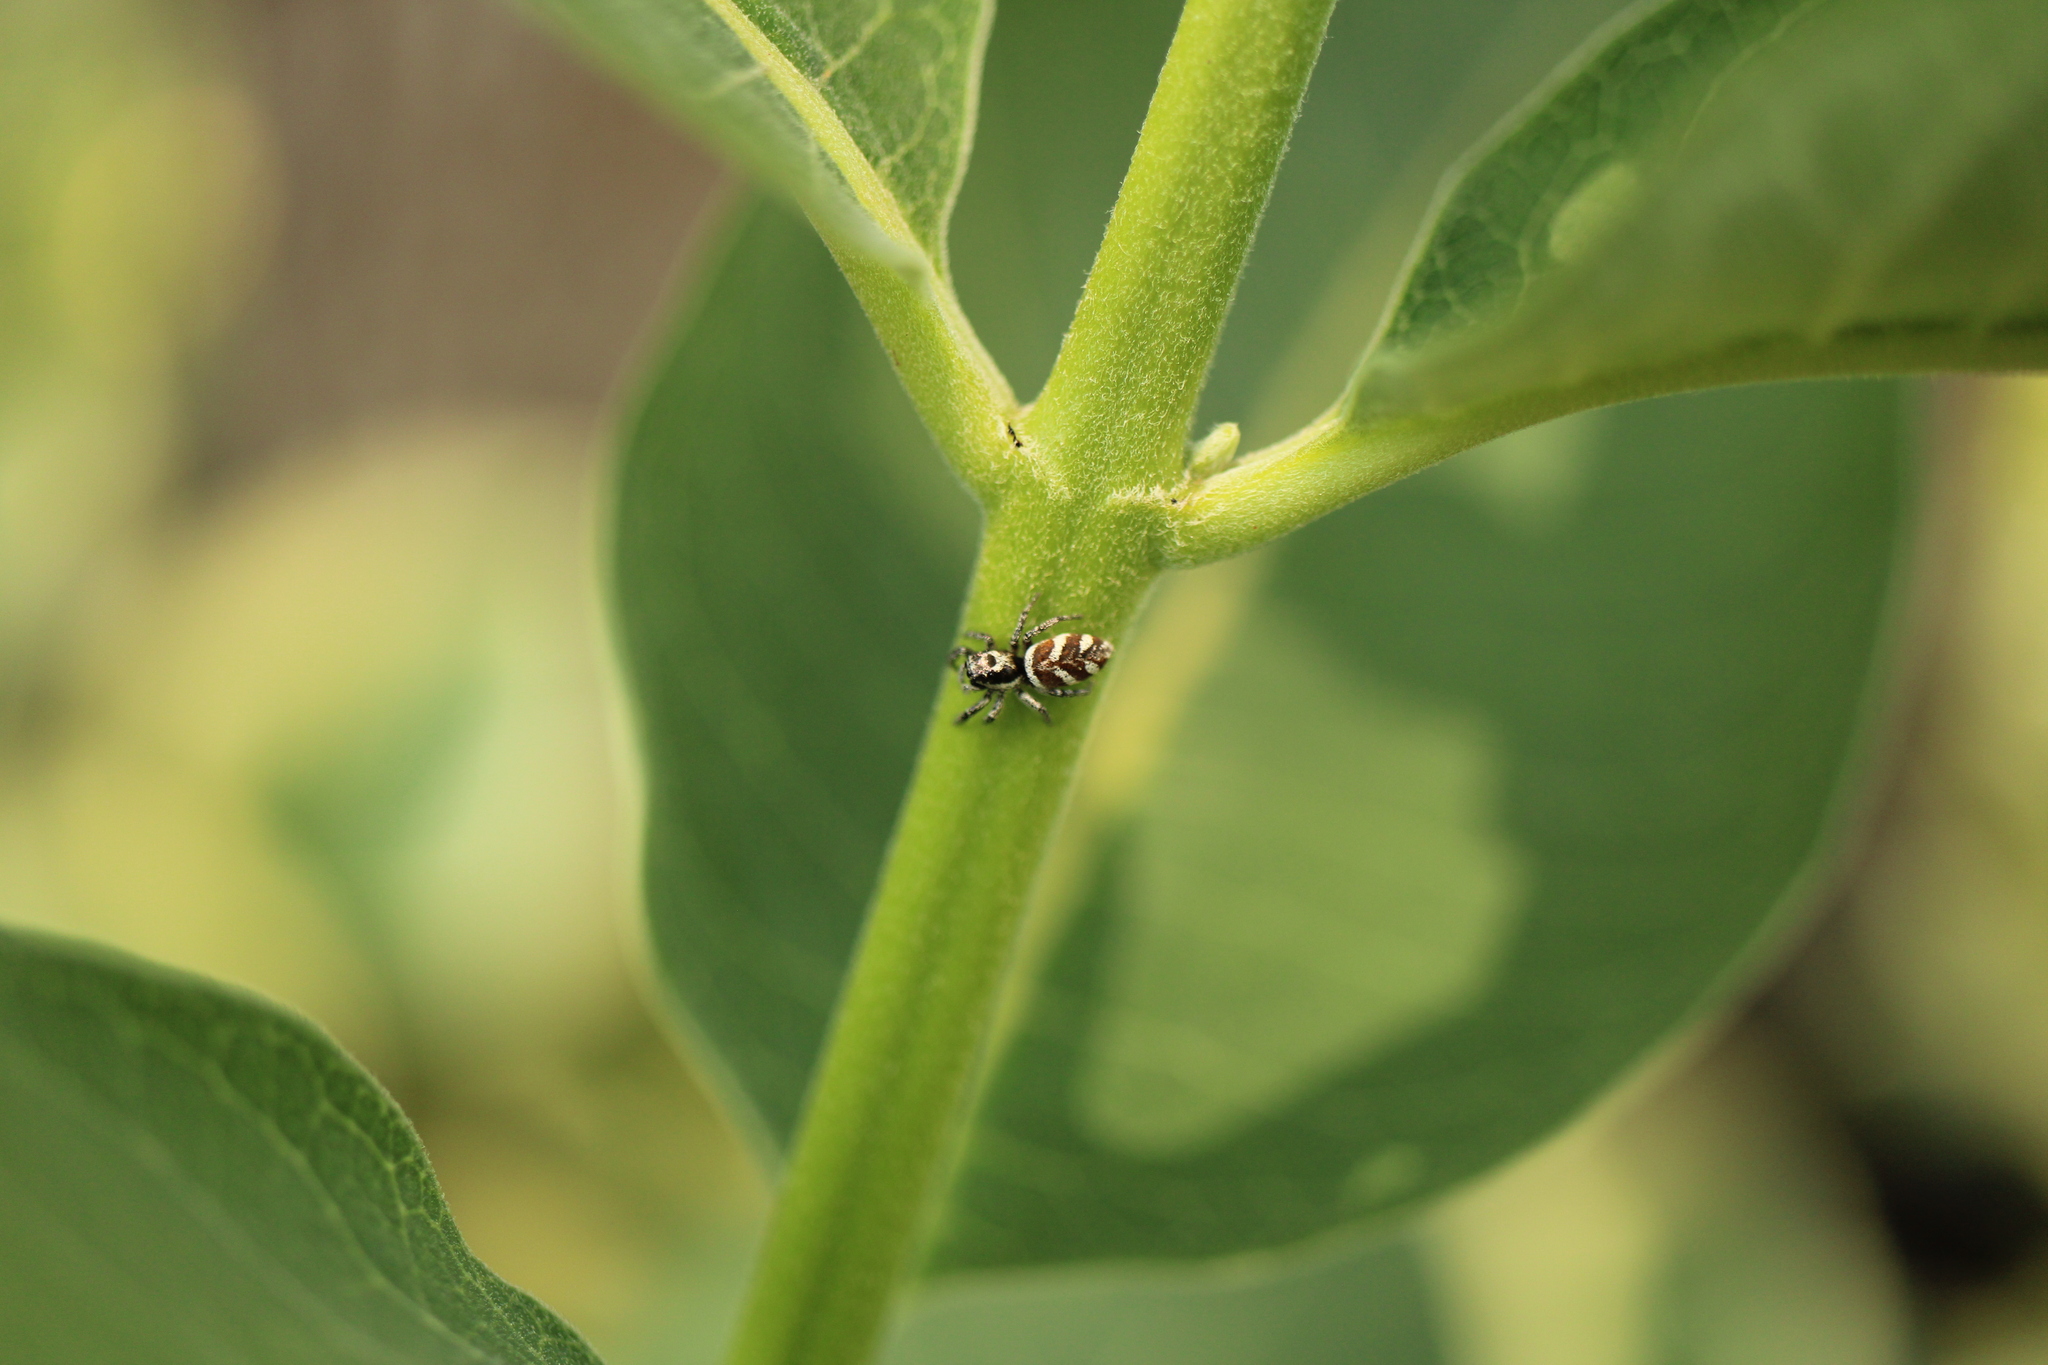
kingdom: Animalia
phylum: Arthropoda
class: Arachnida
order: Araneae
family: Salticidae
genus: Salticus
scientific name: Salticus scenicus
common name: Zebra jumper
